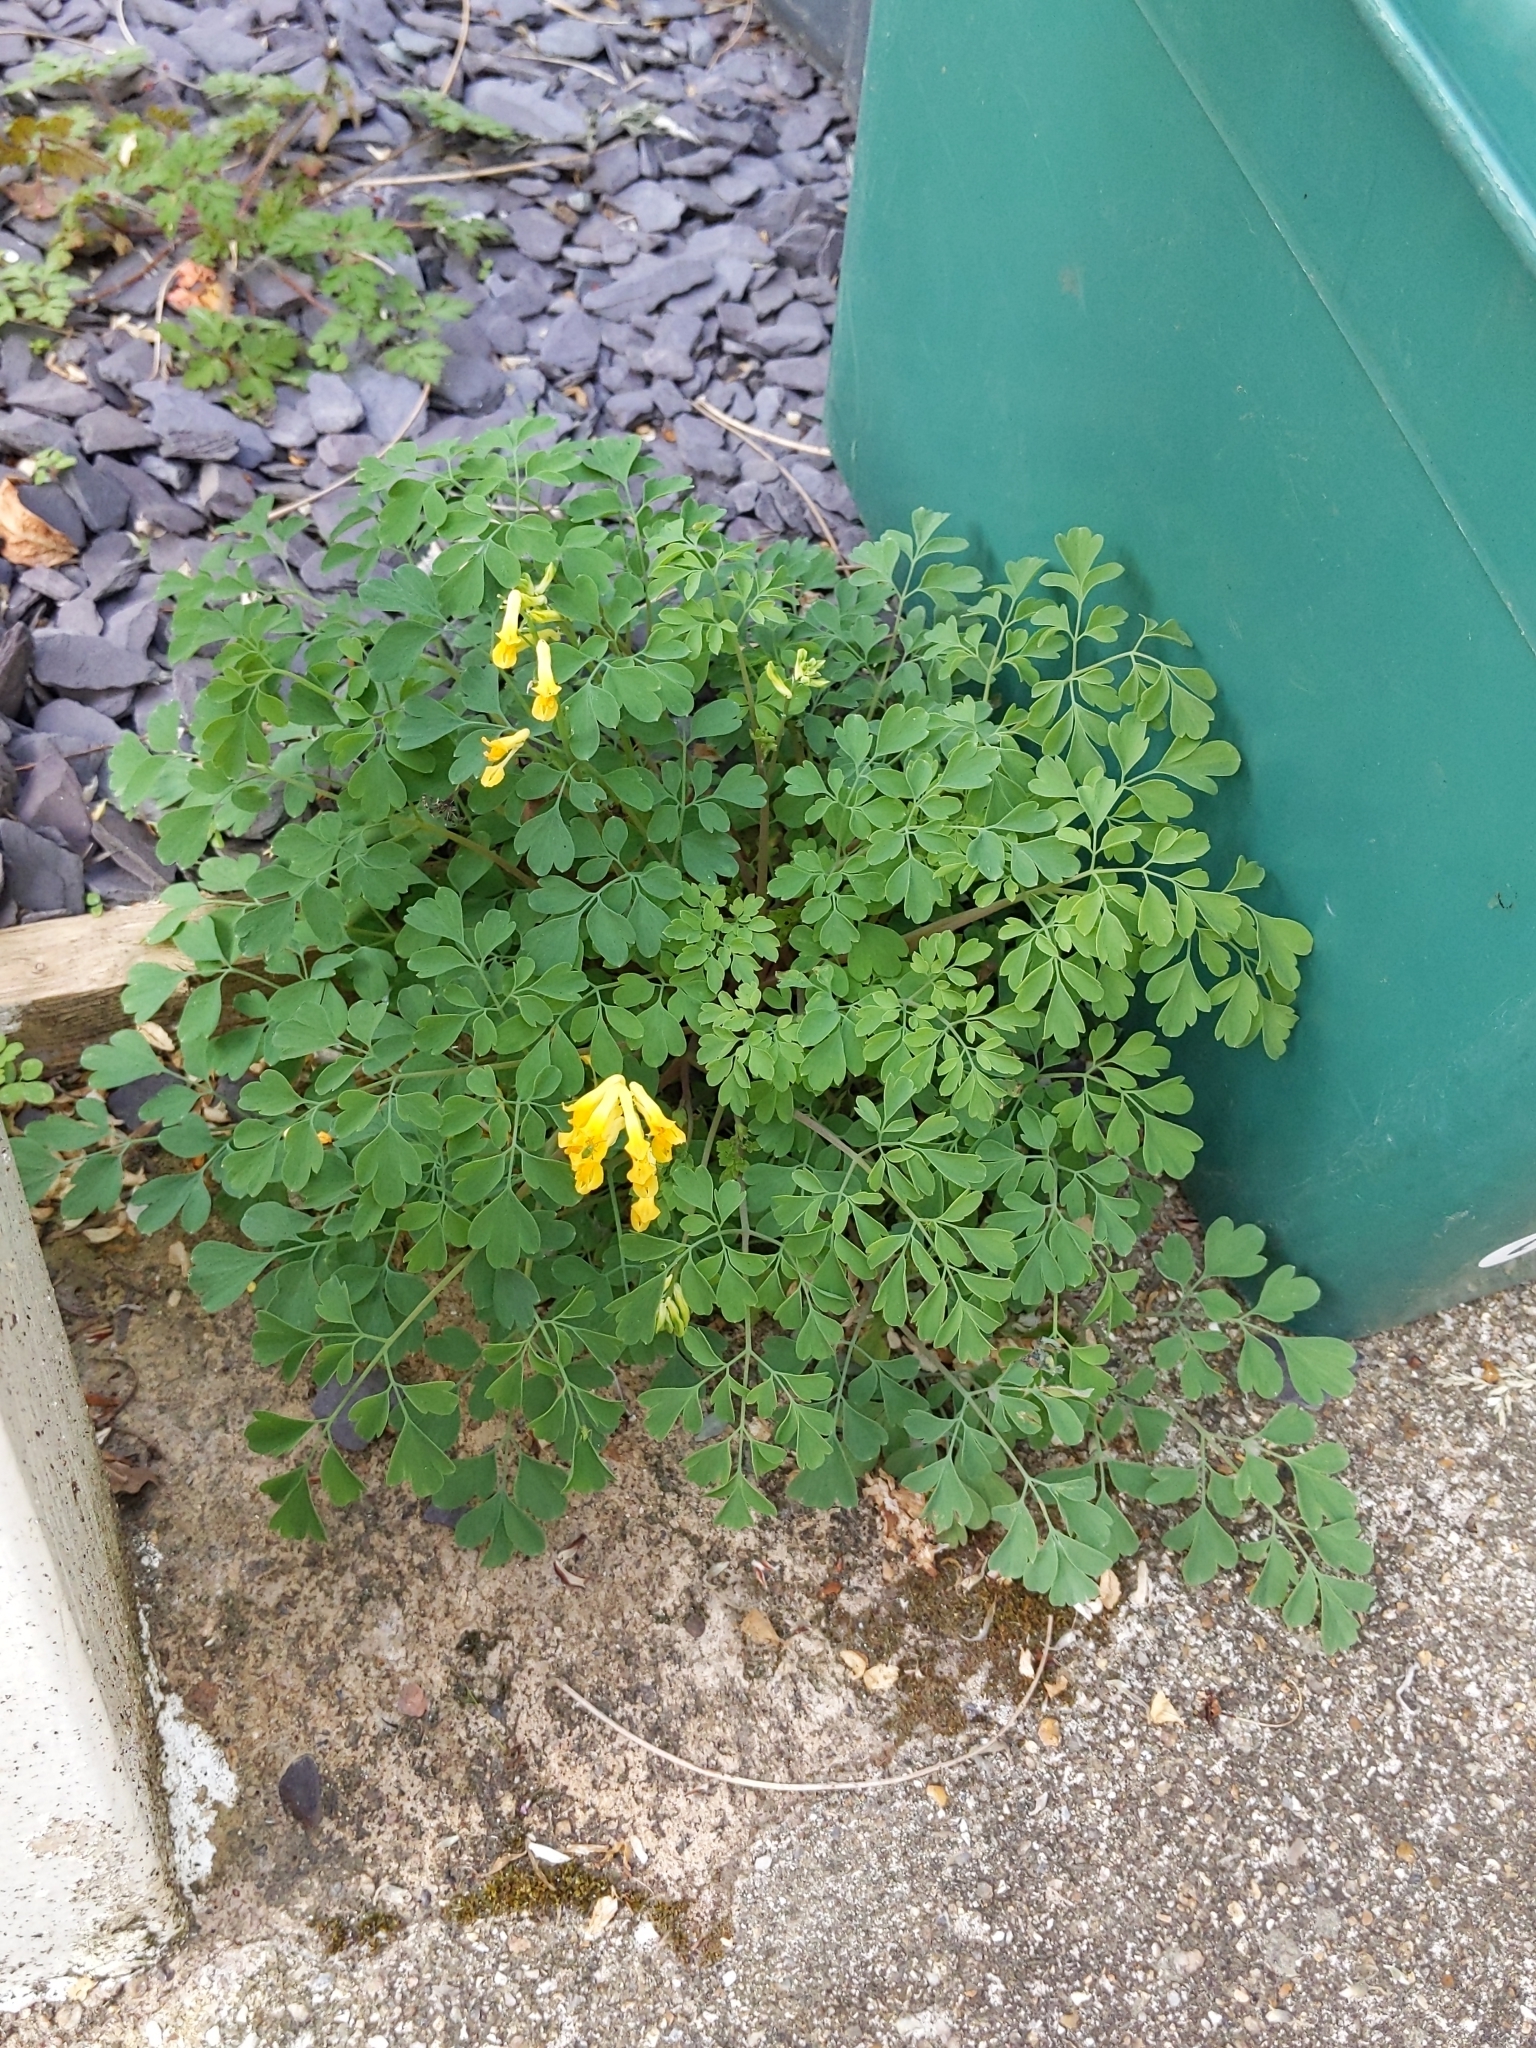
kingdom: Plantae
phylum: Tracheophyta
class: Magnoliopsida
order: Ranunculales
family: Papaveraceae
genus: Pseudofumaria
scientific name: Pseudofumaria lutea
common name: Yellow corydalis
